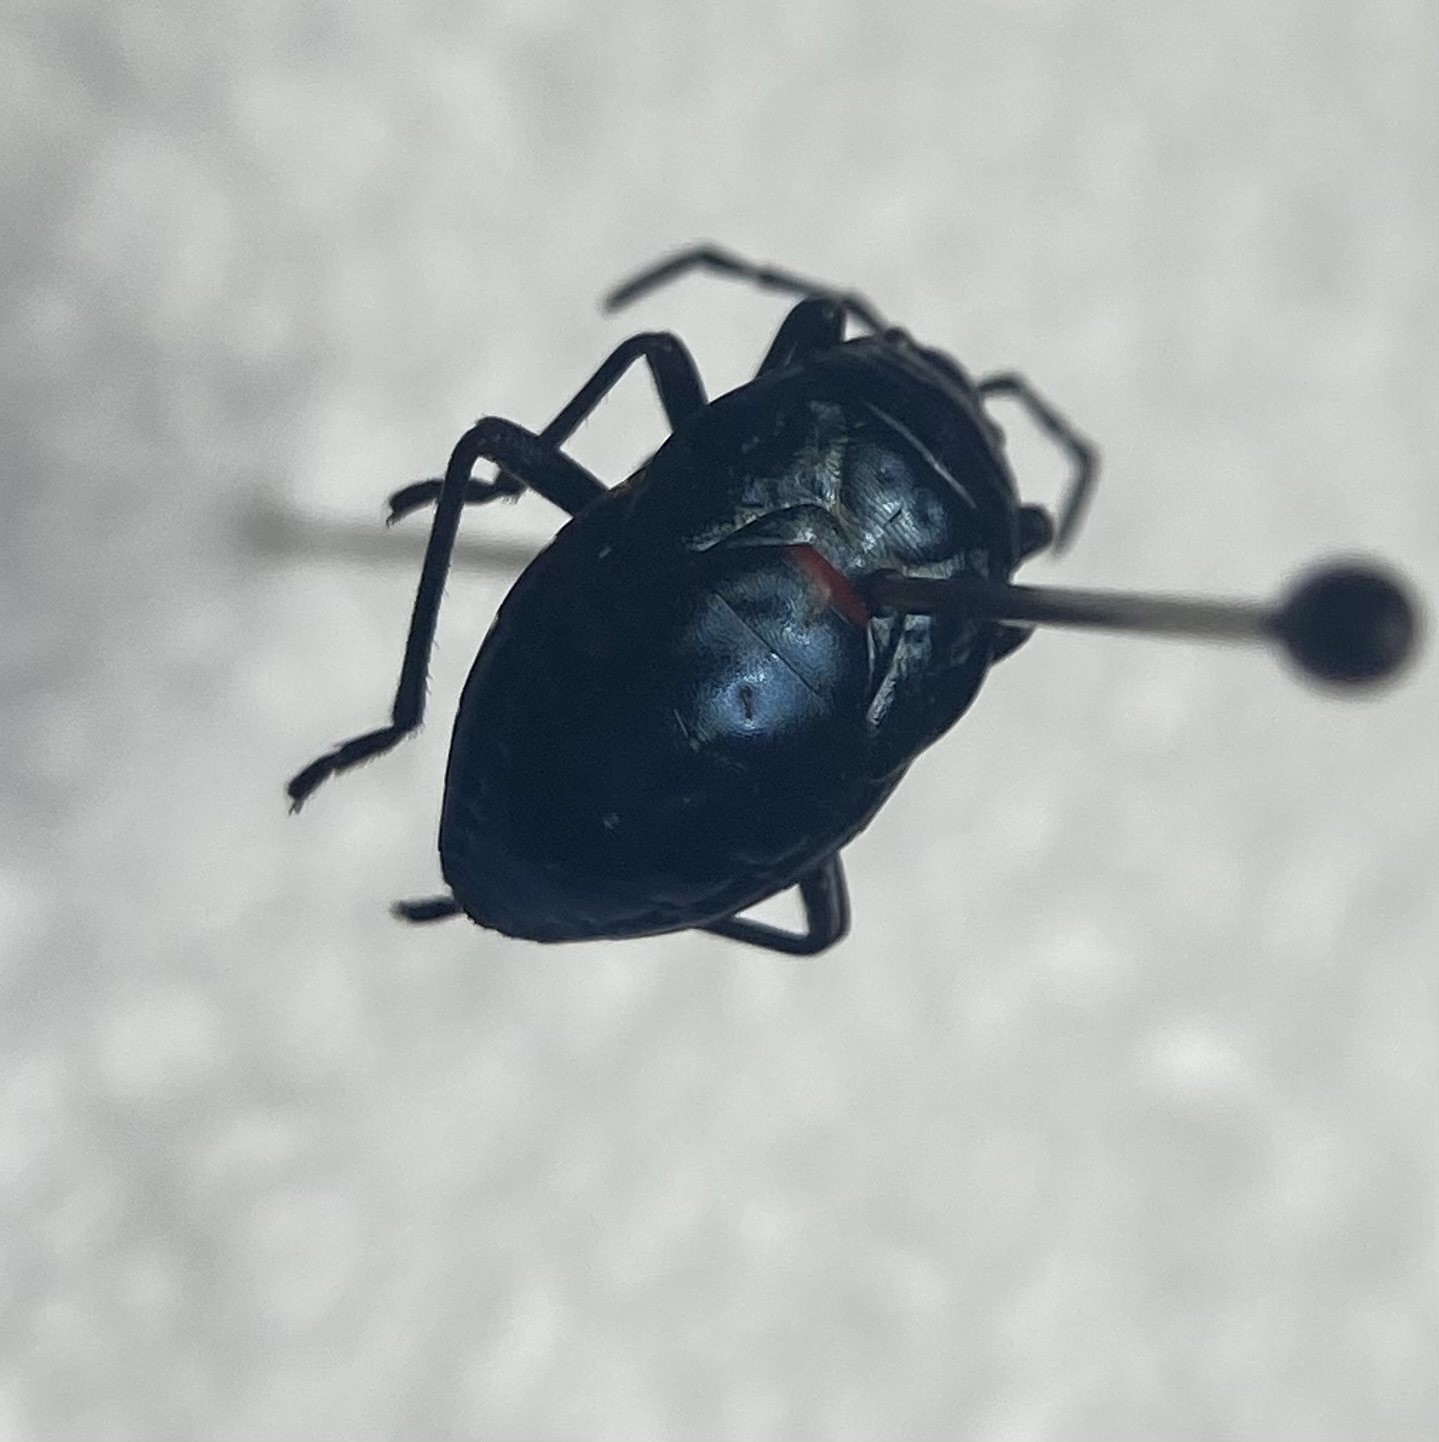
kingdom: Animalia
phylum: Arthropoda
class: Insecta
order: Hemiptera
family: Largidae
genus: Largus
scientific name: Largus
